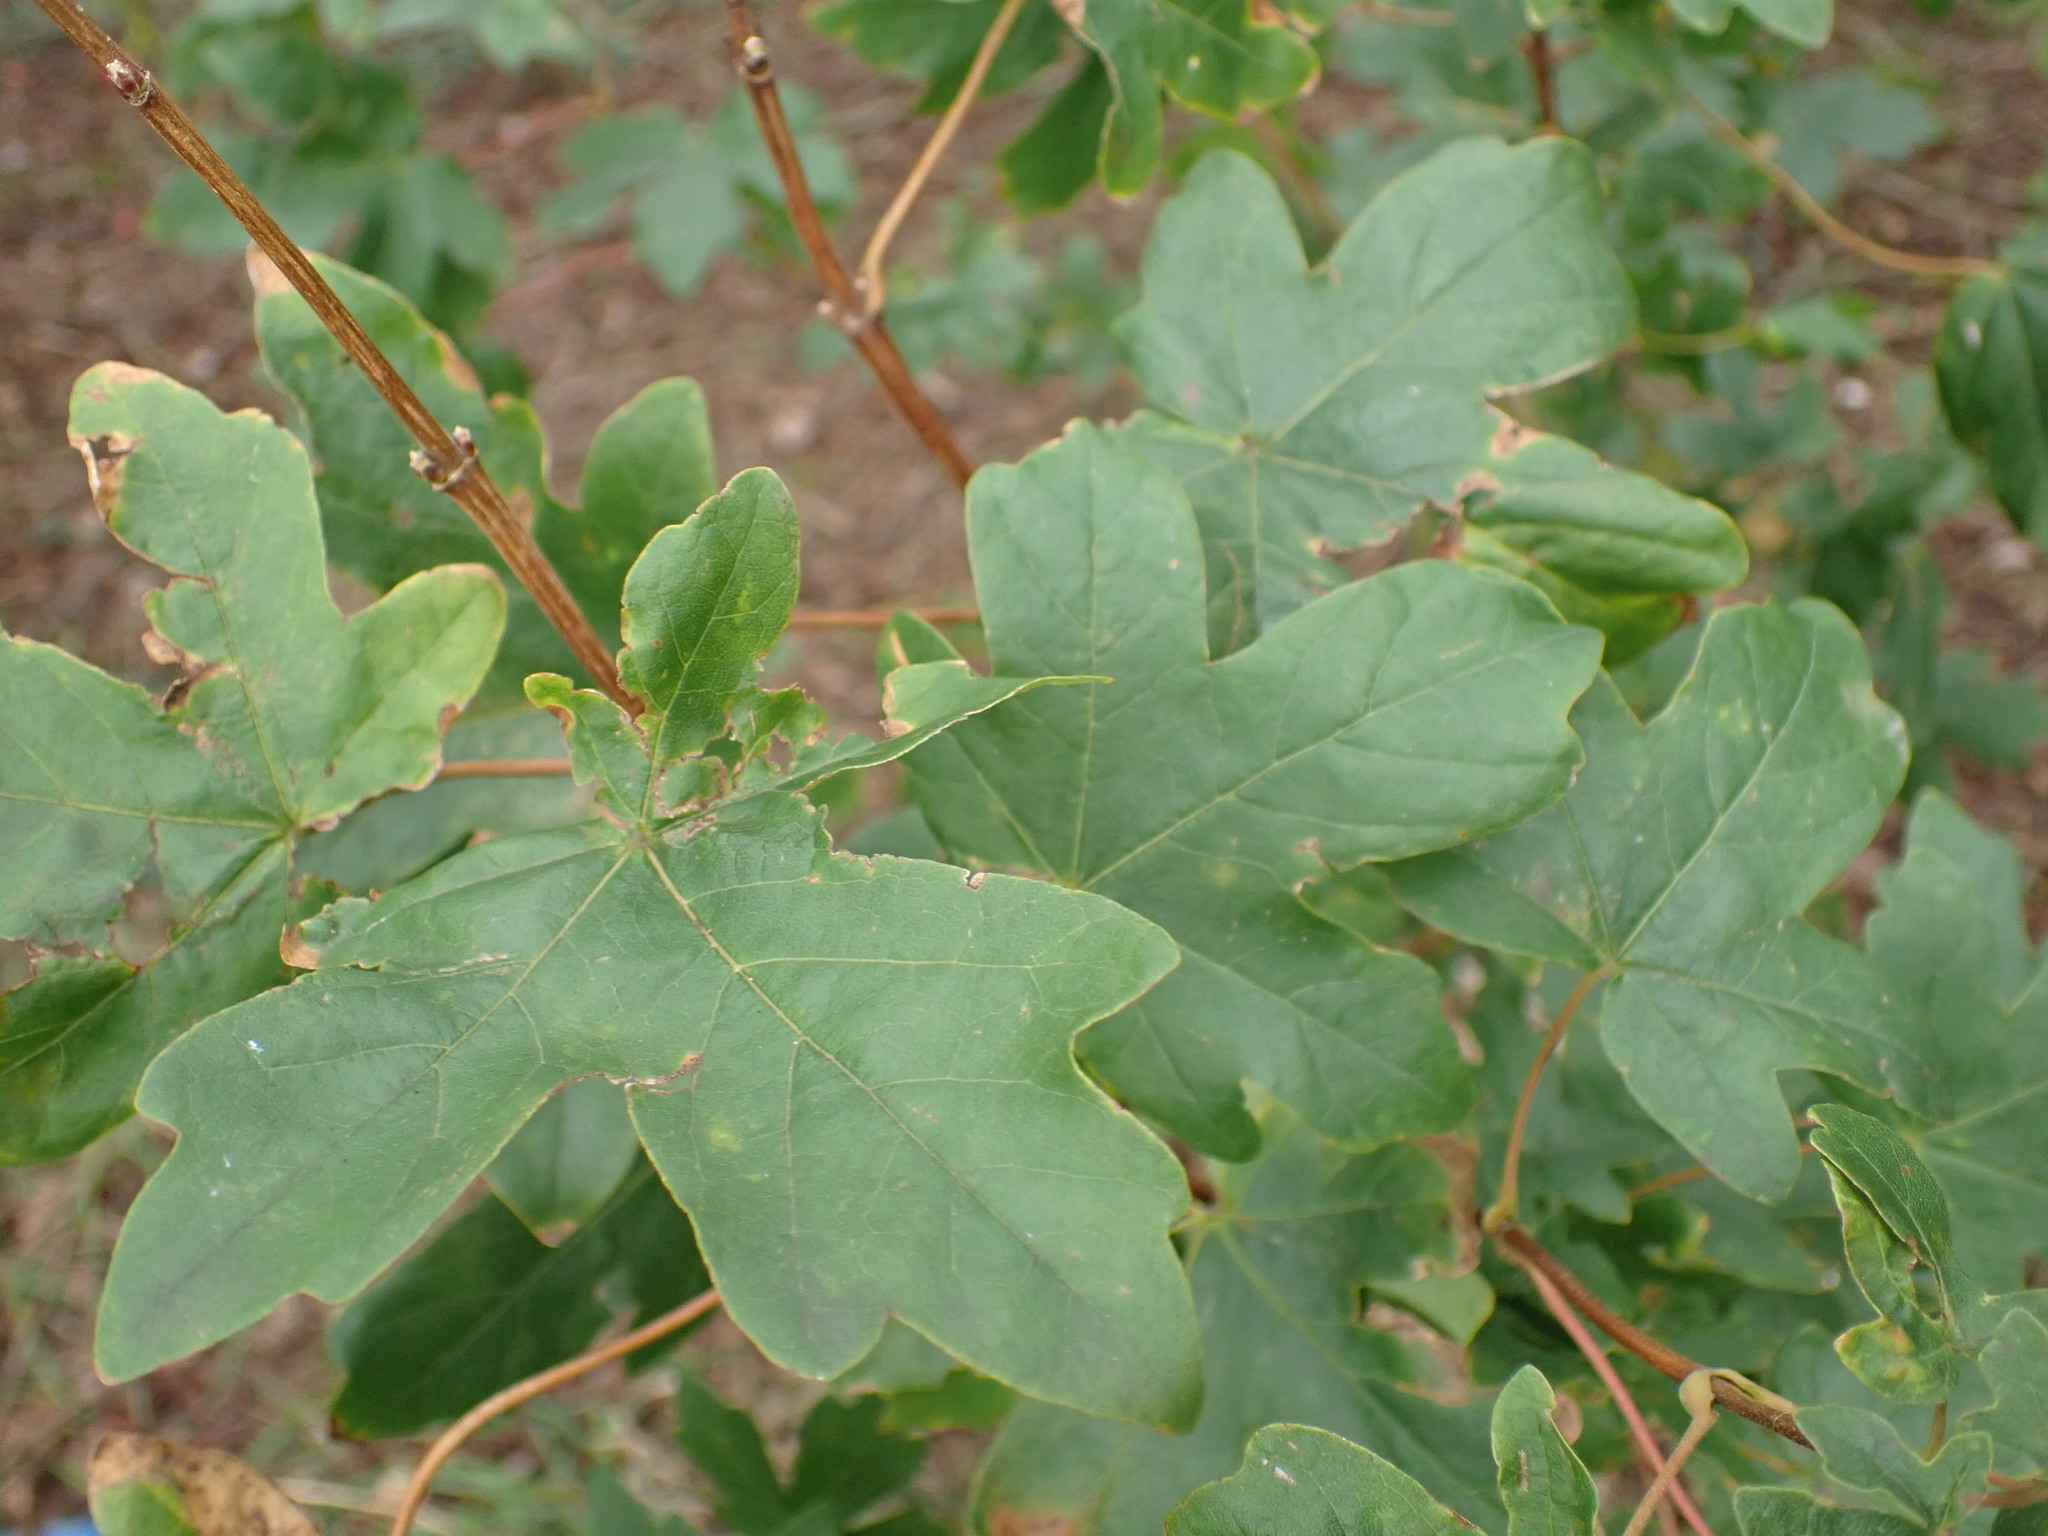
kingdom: Plantae
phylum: Tracheophyta
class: Magnoliopsida
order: Sapindales
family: Sapindaceae
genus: Acer
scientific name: Acer campestre
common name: Field maple
